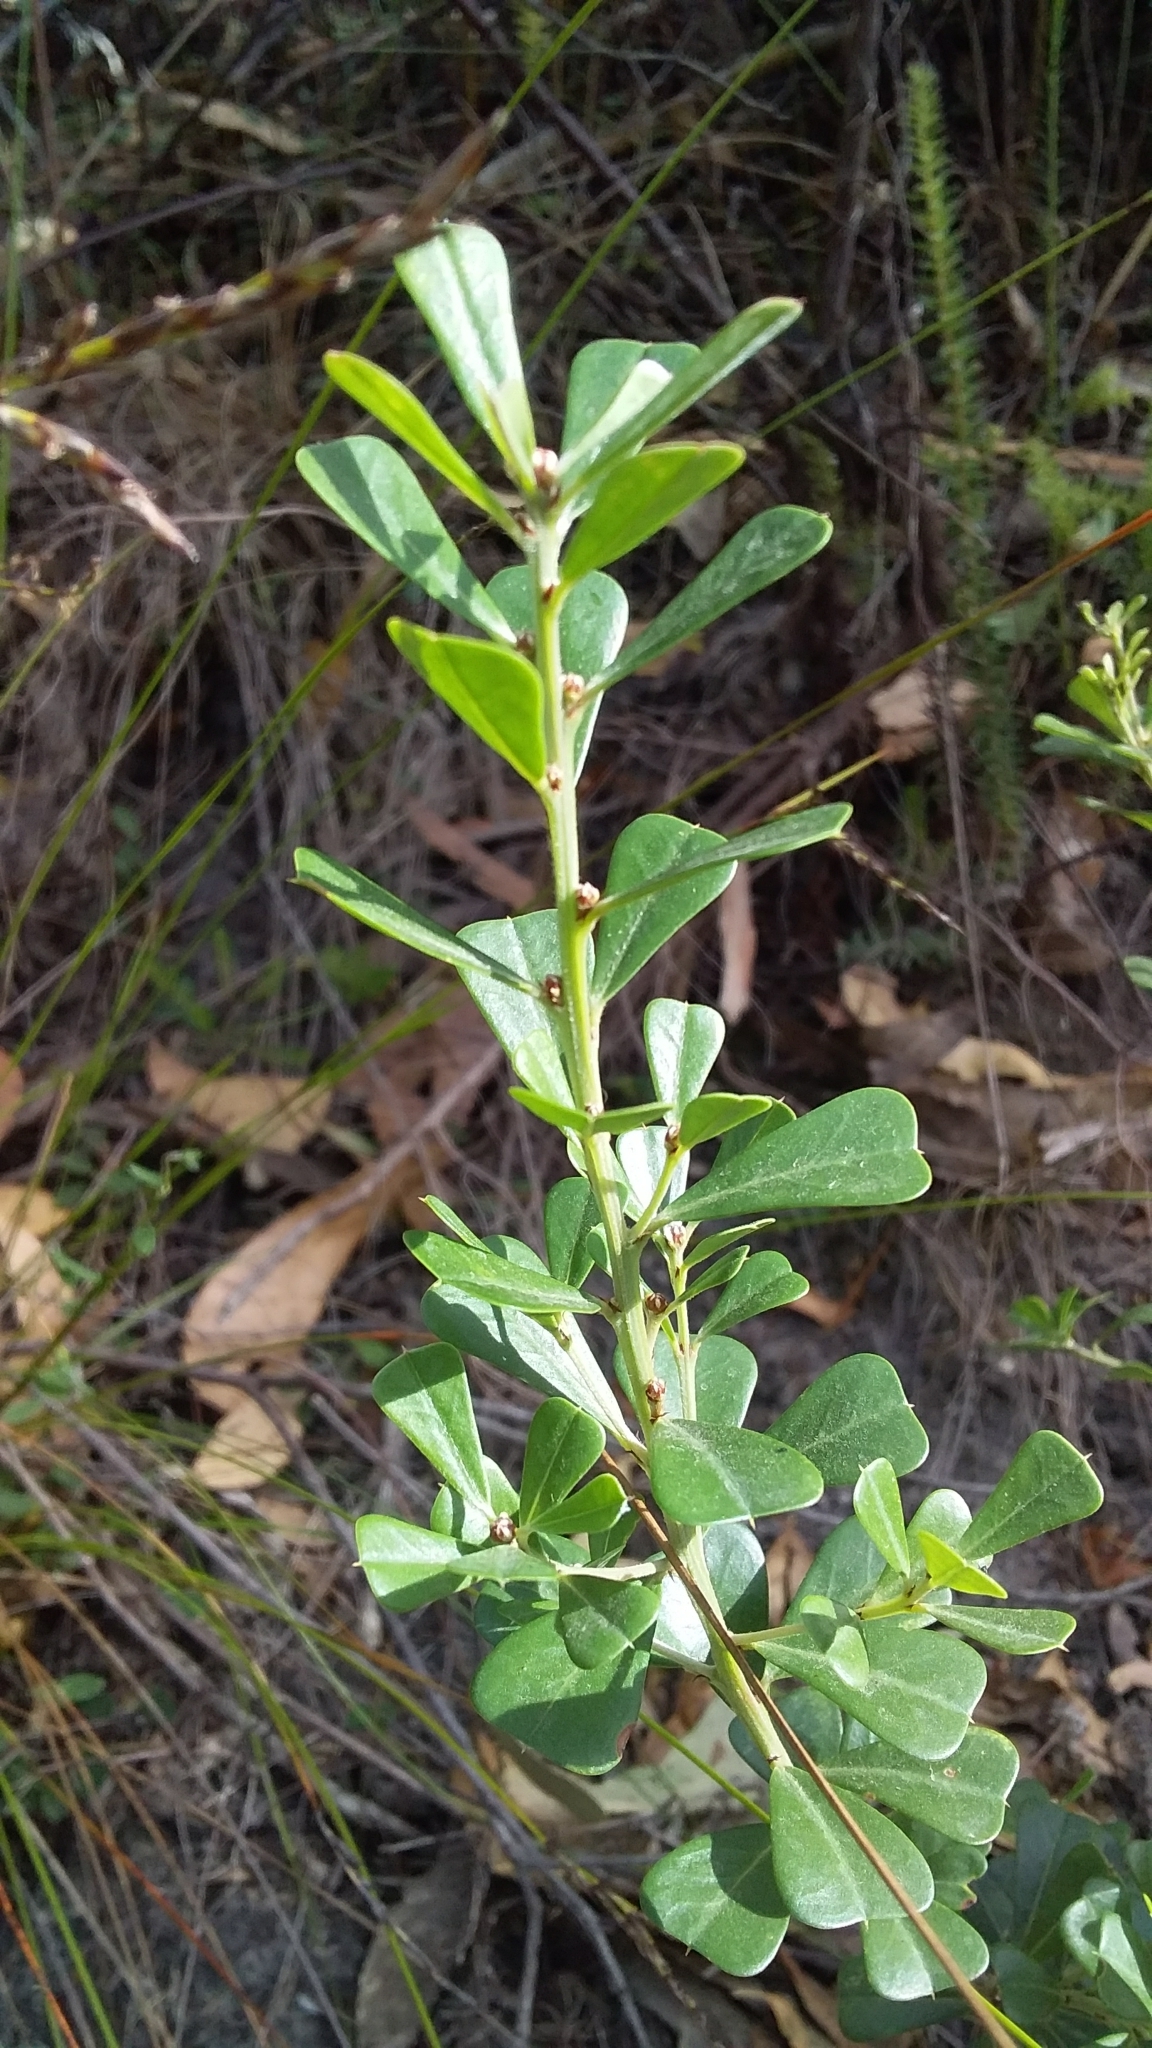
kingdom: Plantae
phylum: Tracheophyta
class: Magnoliopsida
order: Fabales
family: Fabaceae
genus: Pultenaea
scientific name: Pultenaea daphnoides
